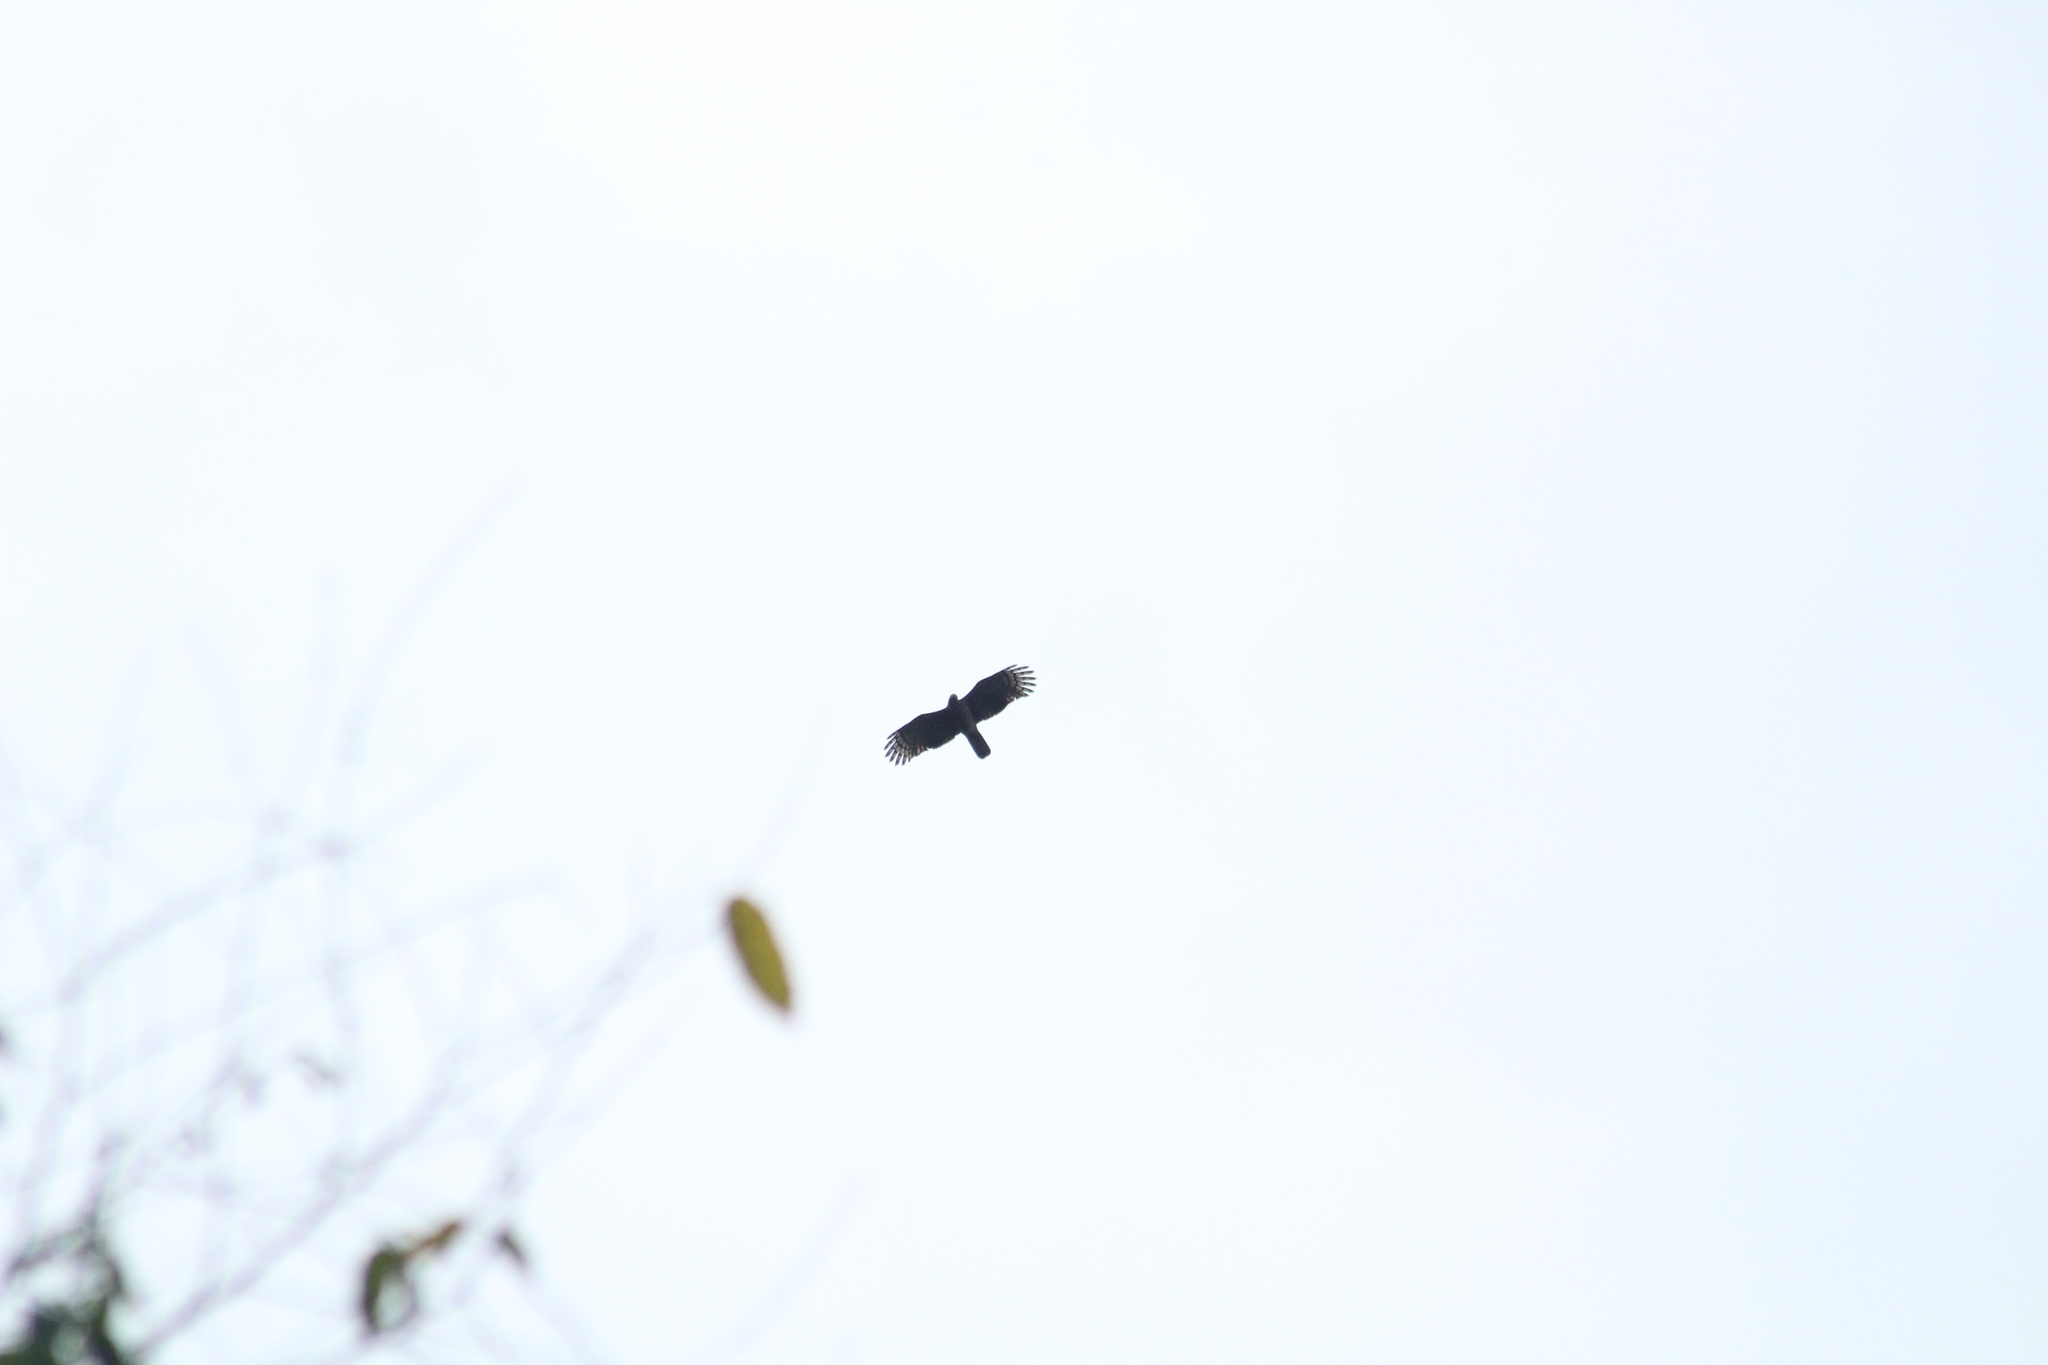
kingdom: Animalia
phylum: Chordata
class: Aves
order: Accipitriformes
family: Accipitridae
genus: Buteo
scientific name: Buteo albonotatus
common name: Zone-tailed hawk
